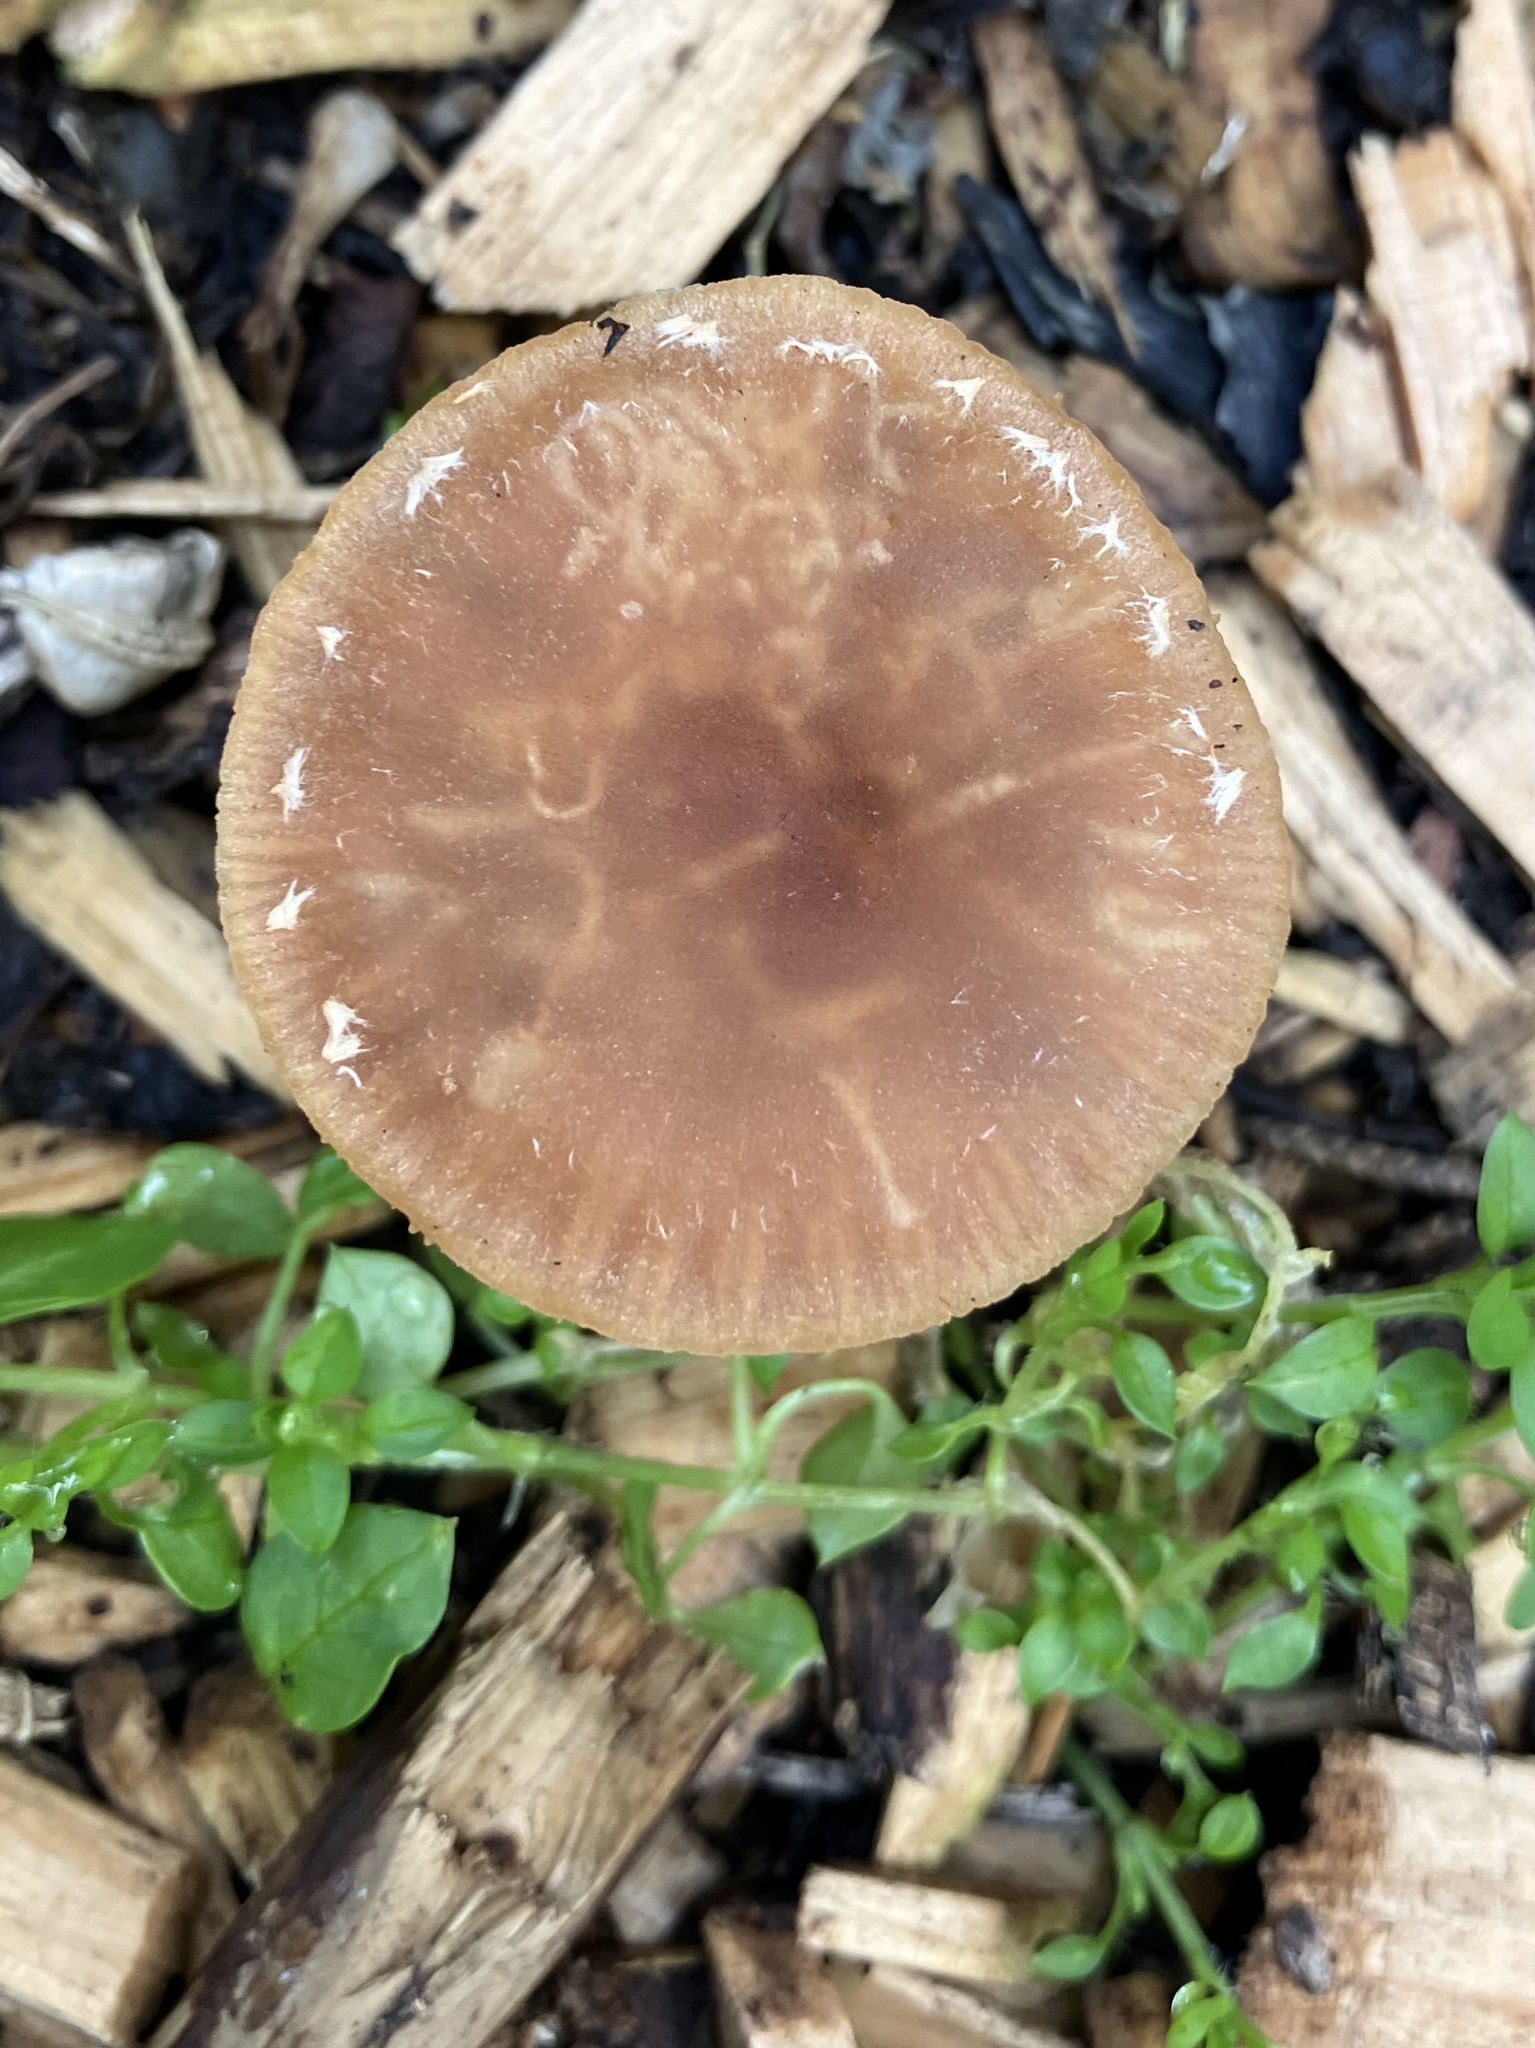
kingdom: Fungi
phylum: Basidiomycota
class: Agaricomycetes
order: Agaricales
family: Tubariaceae
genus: Tubaria
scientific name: Tubaria furfuracea
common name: Scurfy twiglet
